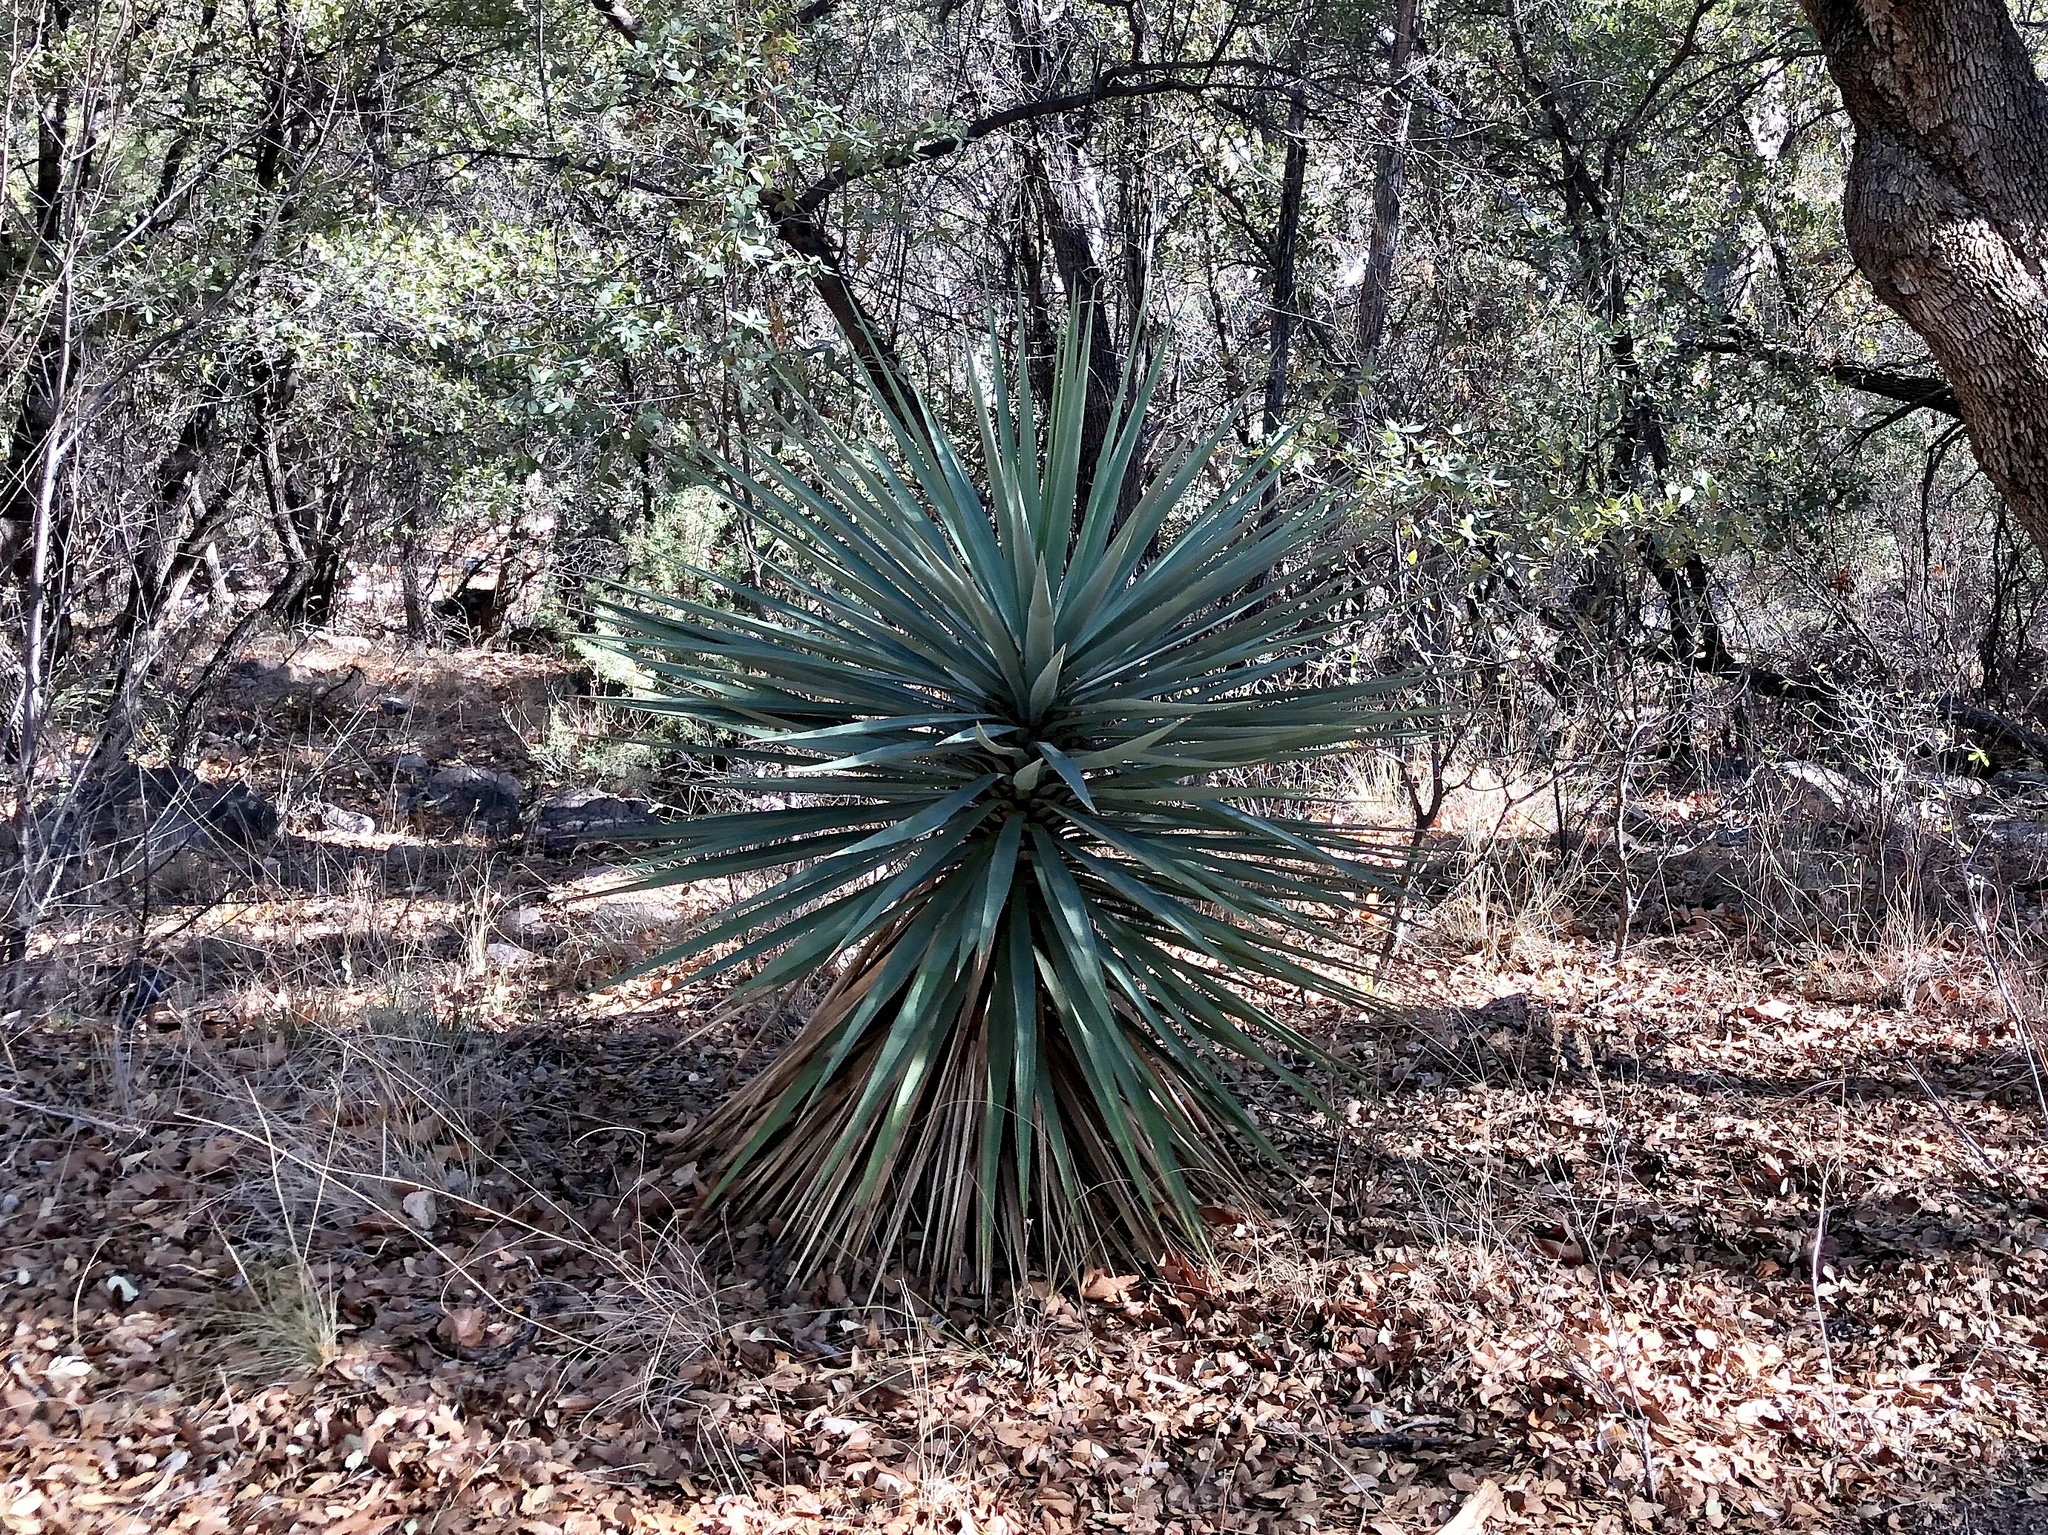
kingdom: Plantae
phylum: Tracheophyta
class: Liliopsida
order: Asparagales
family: Asparagaceae
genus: Yucca
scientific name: Yucca madrensis
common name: Hoary yucca
